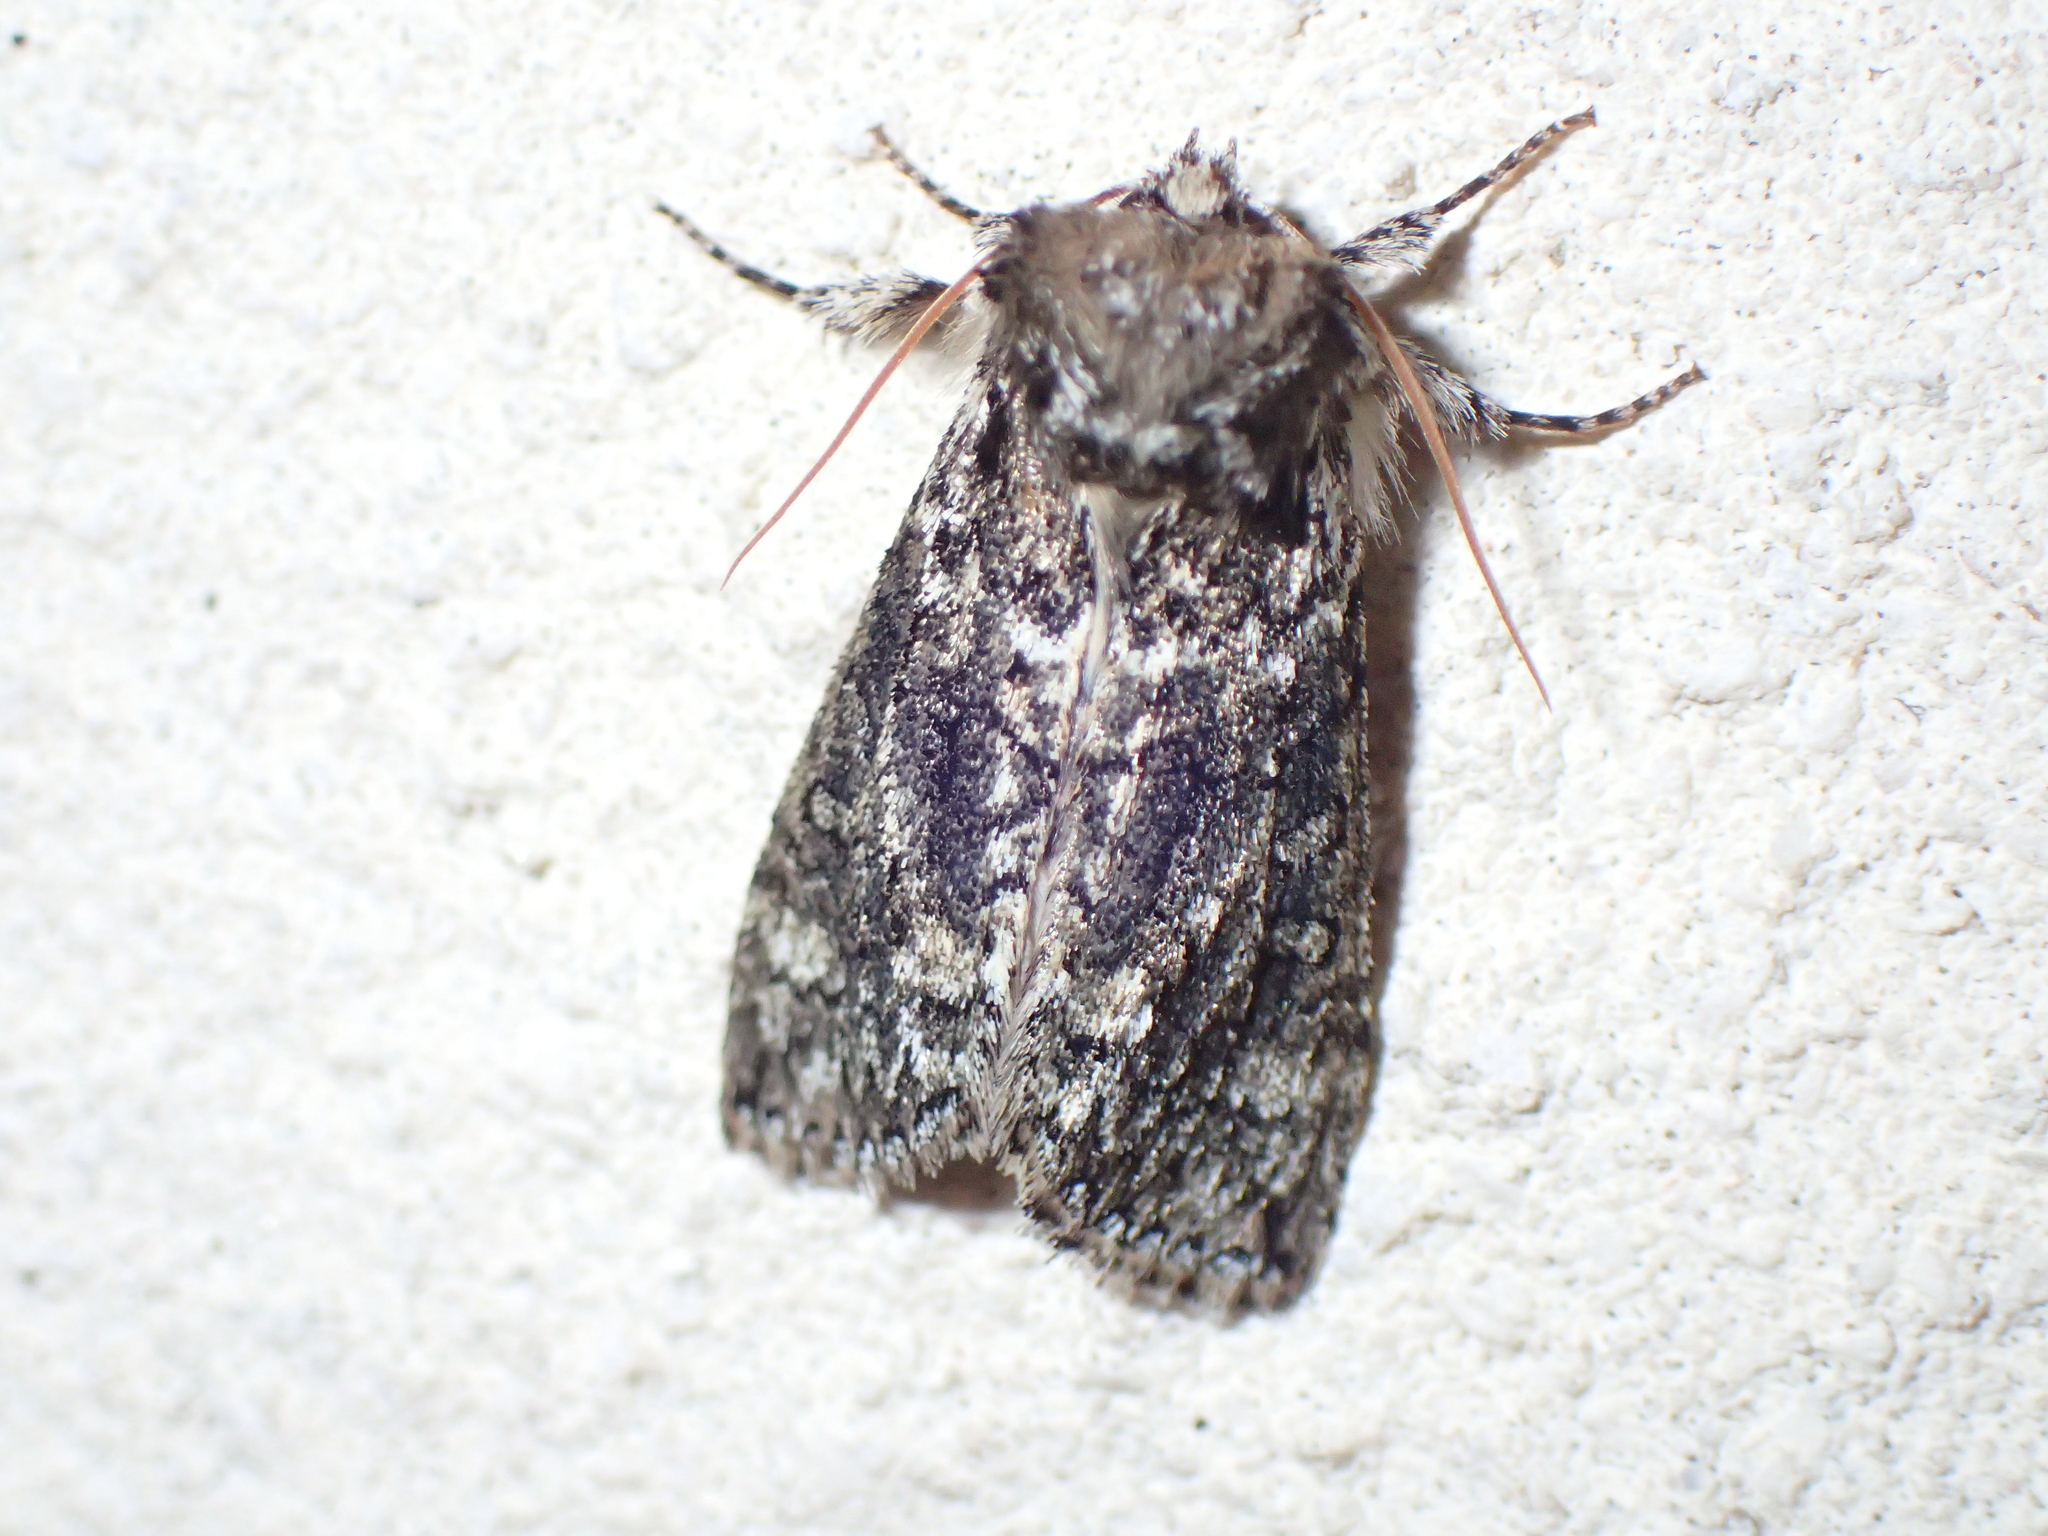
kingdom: Animalia
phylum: Arthropoda
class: Insecta
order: Lepidoptera
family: Drepanidae
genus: Polyploca
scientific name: Polyploca ridens
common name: Frosted green
